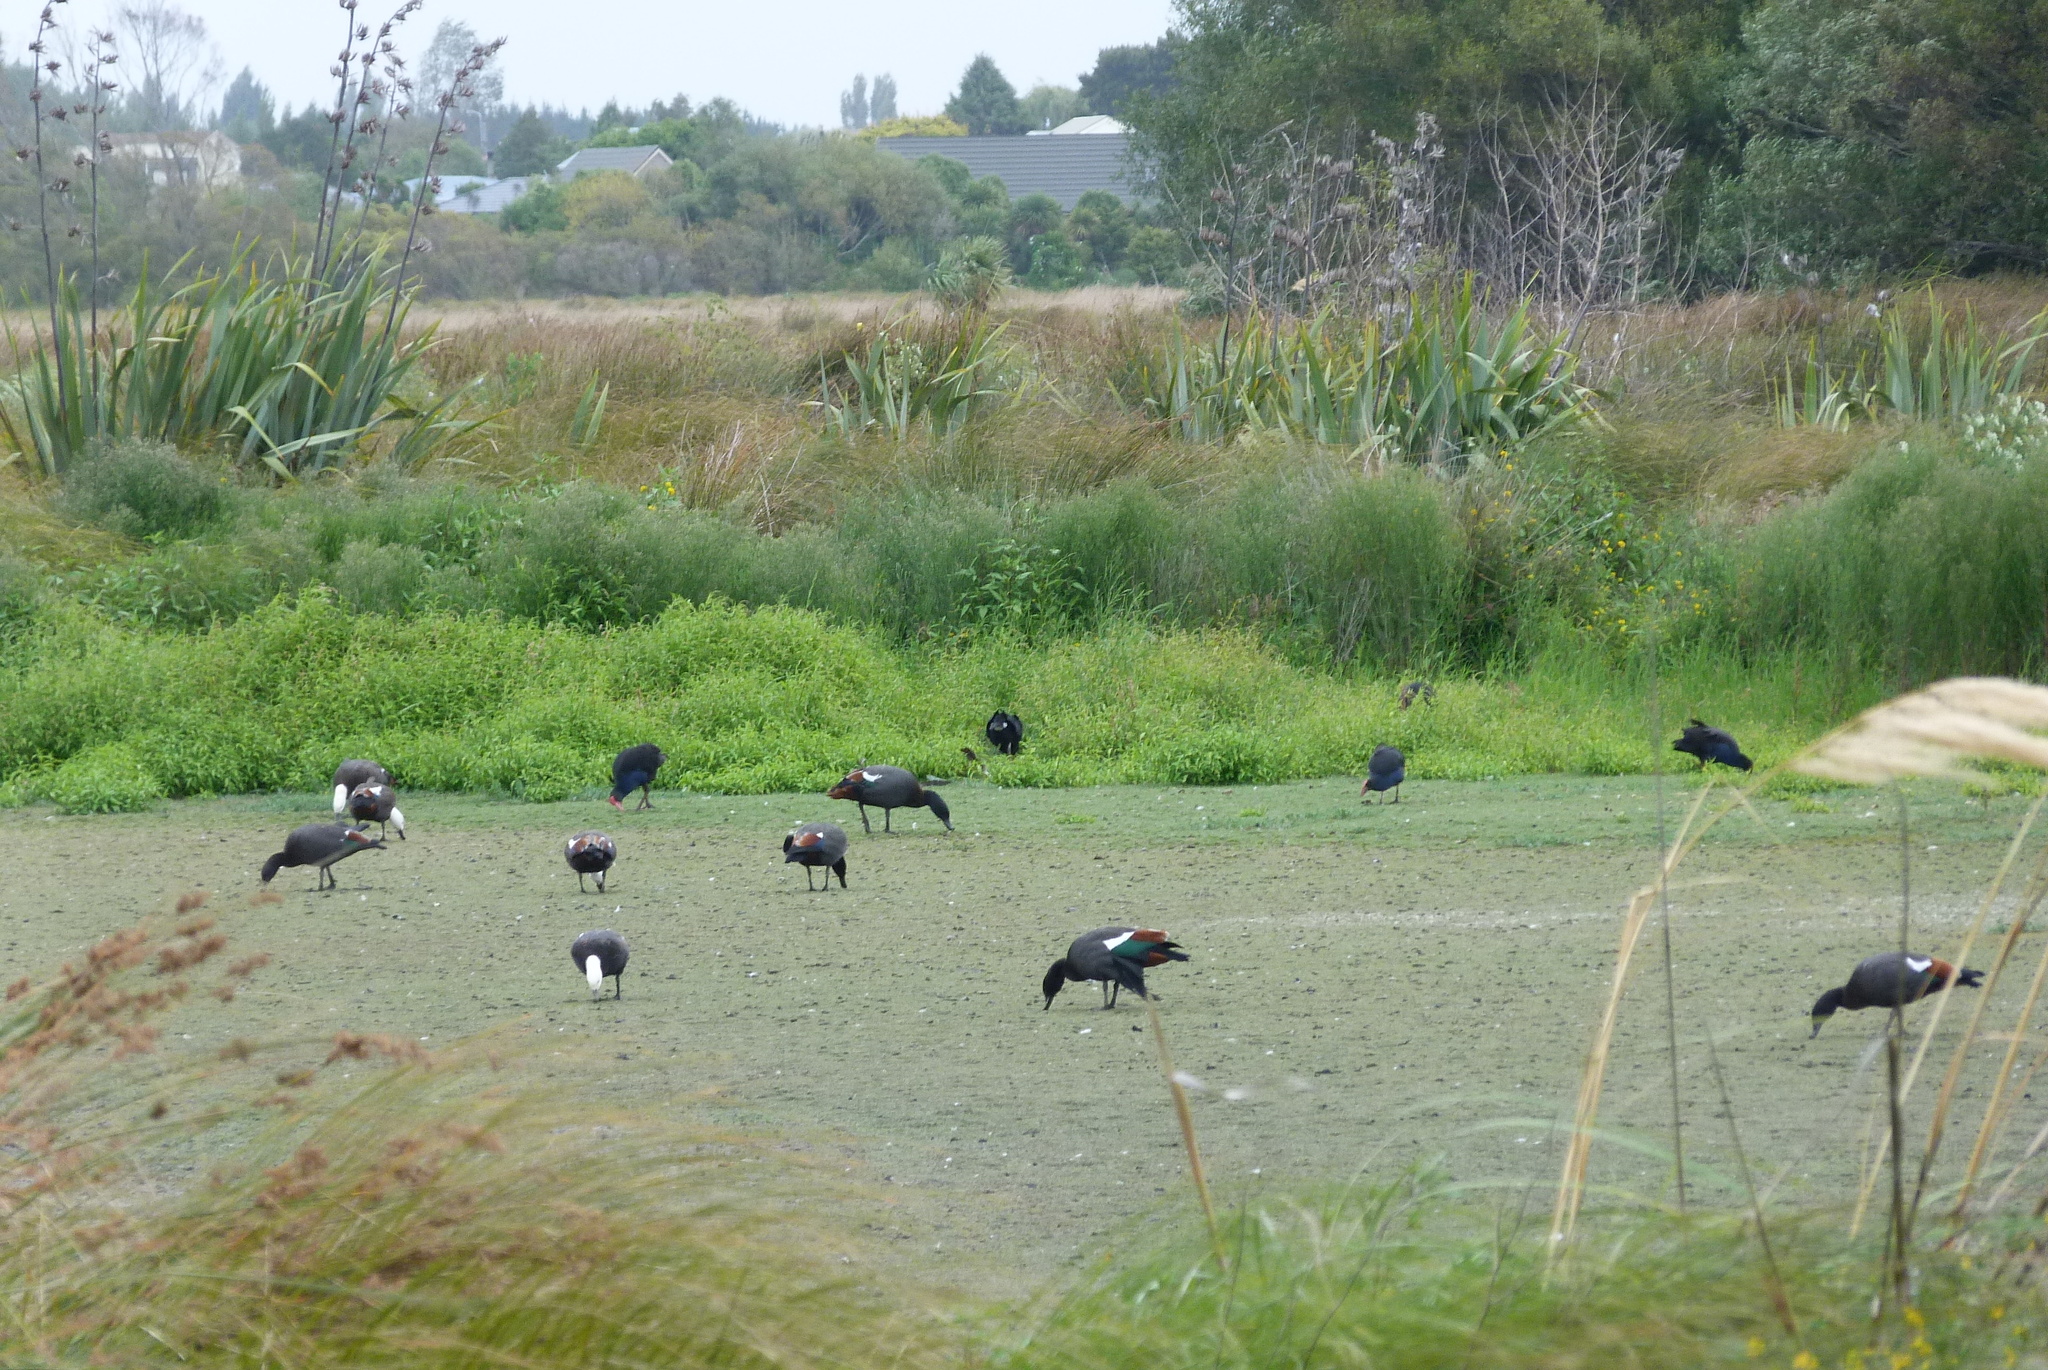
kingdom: Animalia
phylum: Chordata
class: Aves
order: Anseriformes
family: Anatidae
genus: Tadorna
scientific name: Tadorna variegata
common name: Paradise shelduck
